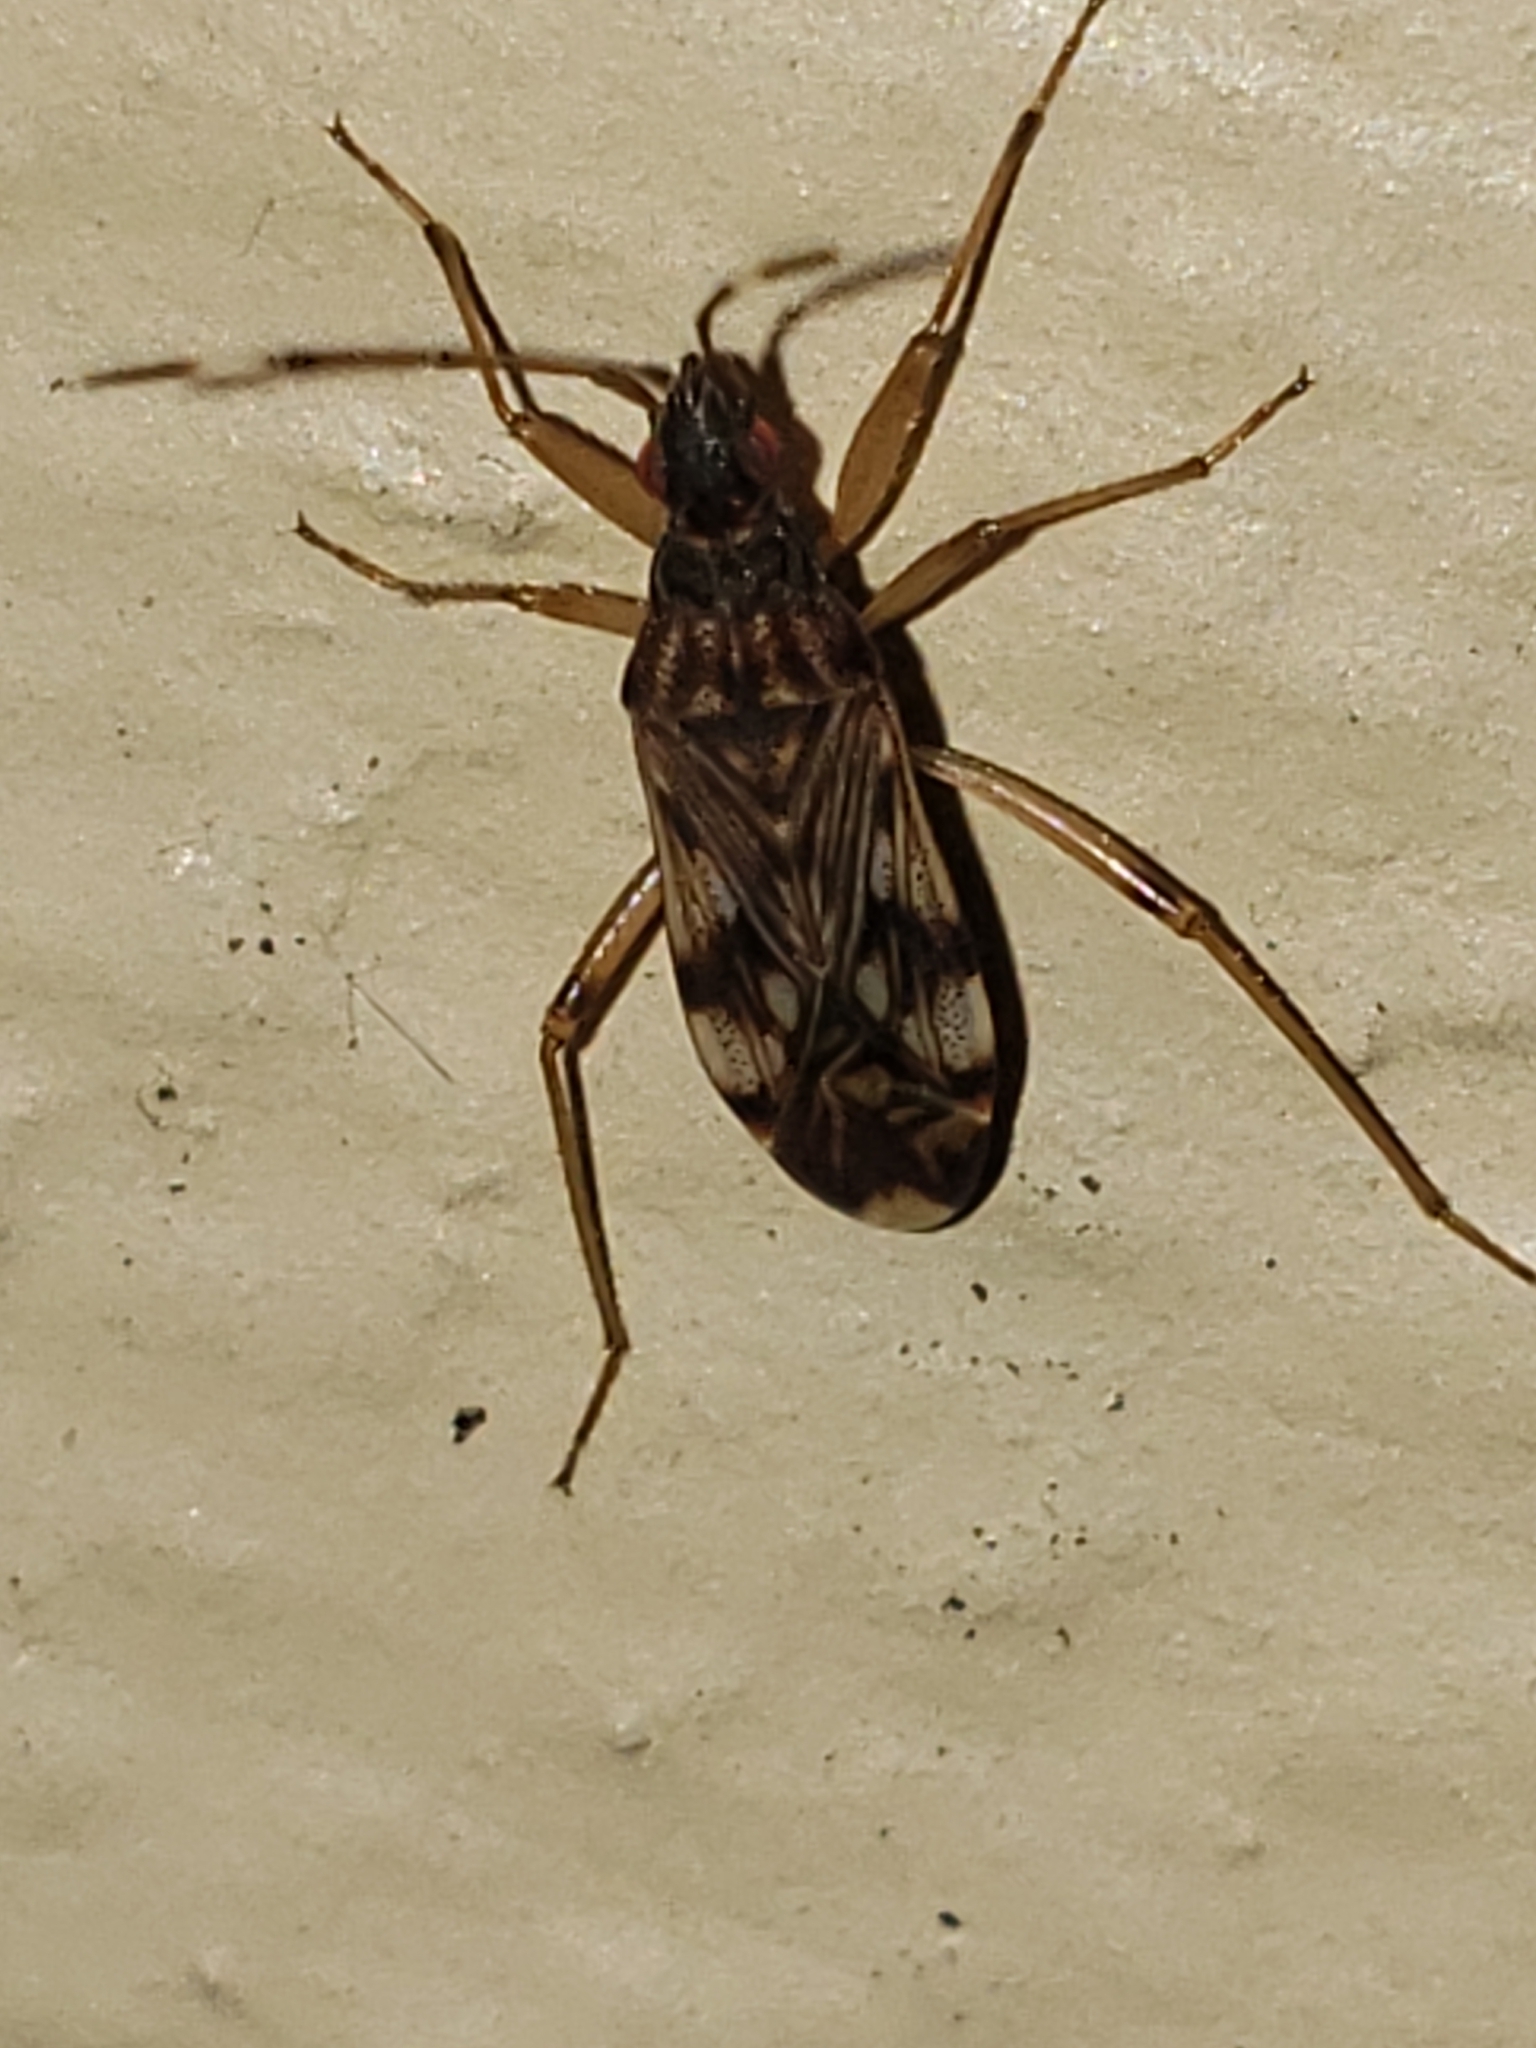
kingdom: Animalia
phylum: Arthropoda
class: Insecta
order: Hemiptera
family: Rhyparochromidae
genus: Ozophora
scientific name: Ozophora picturata
